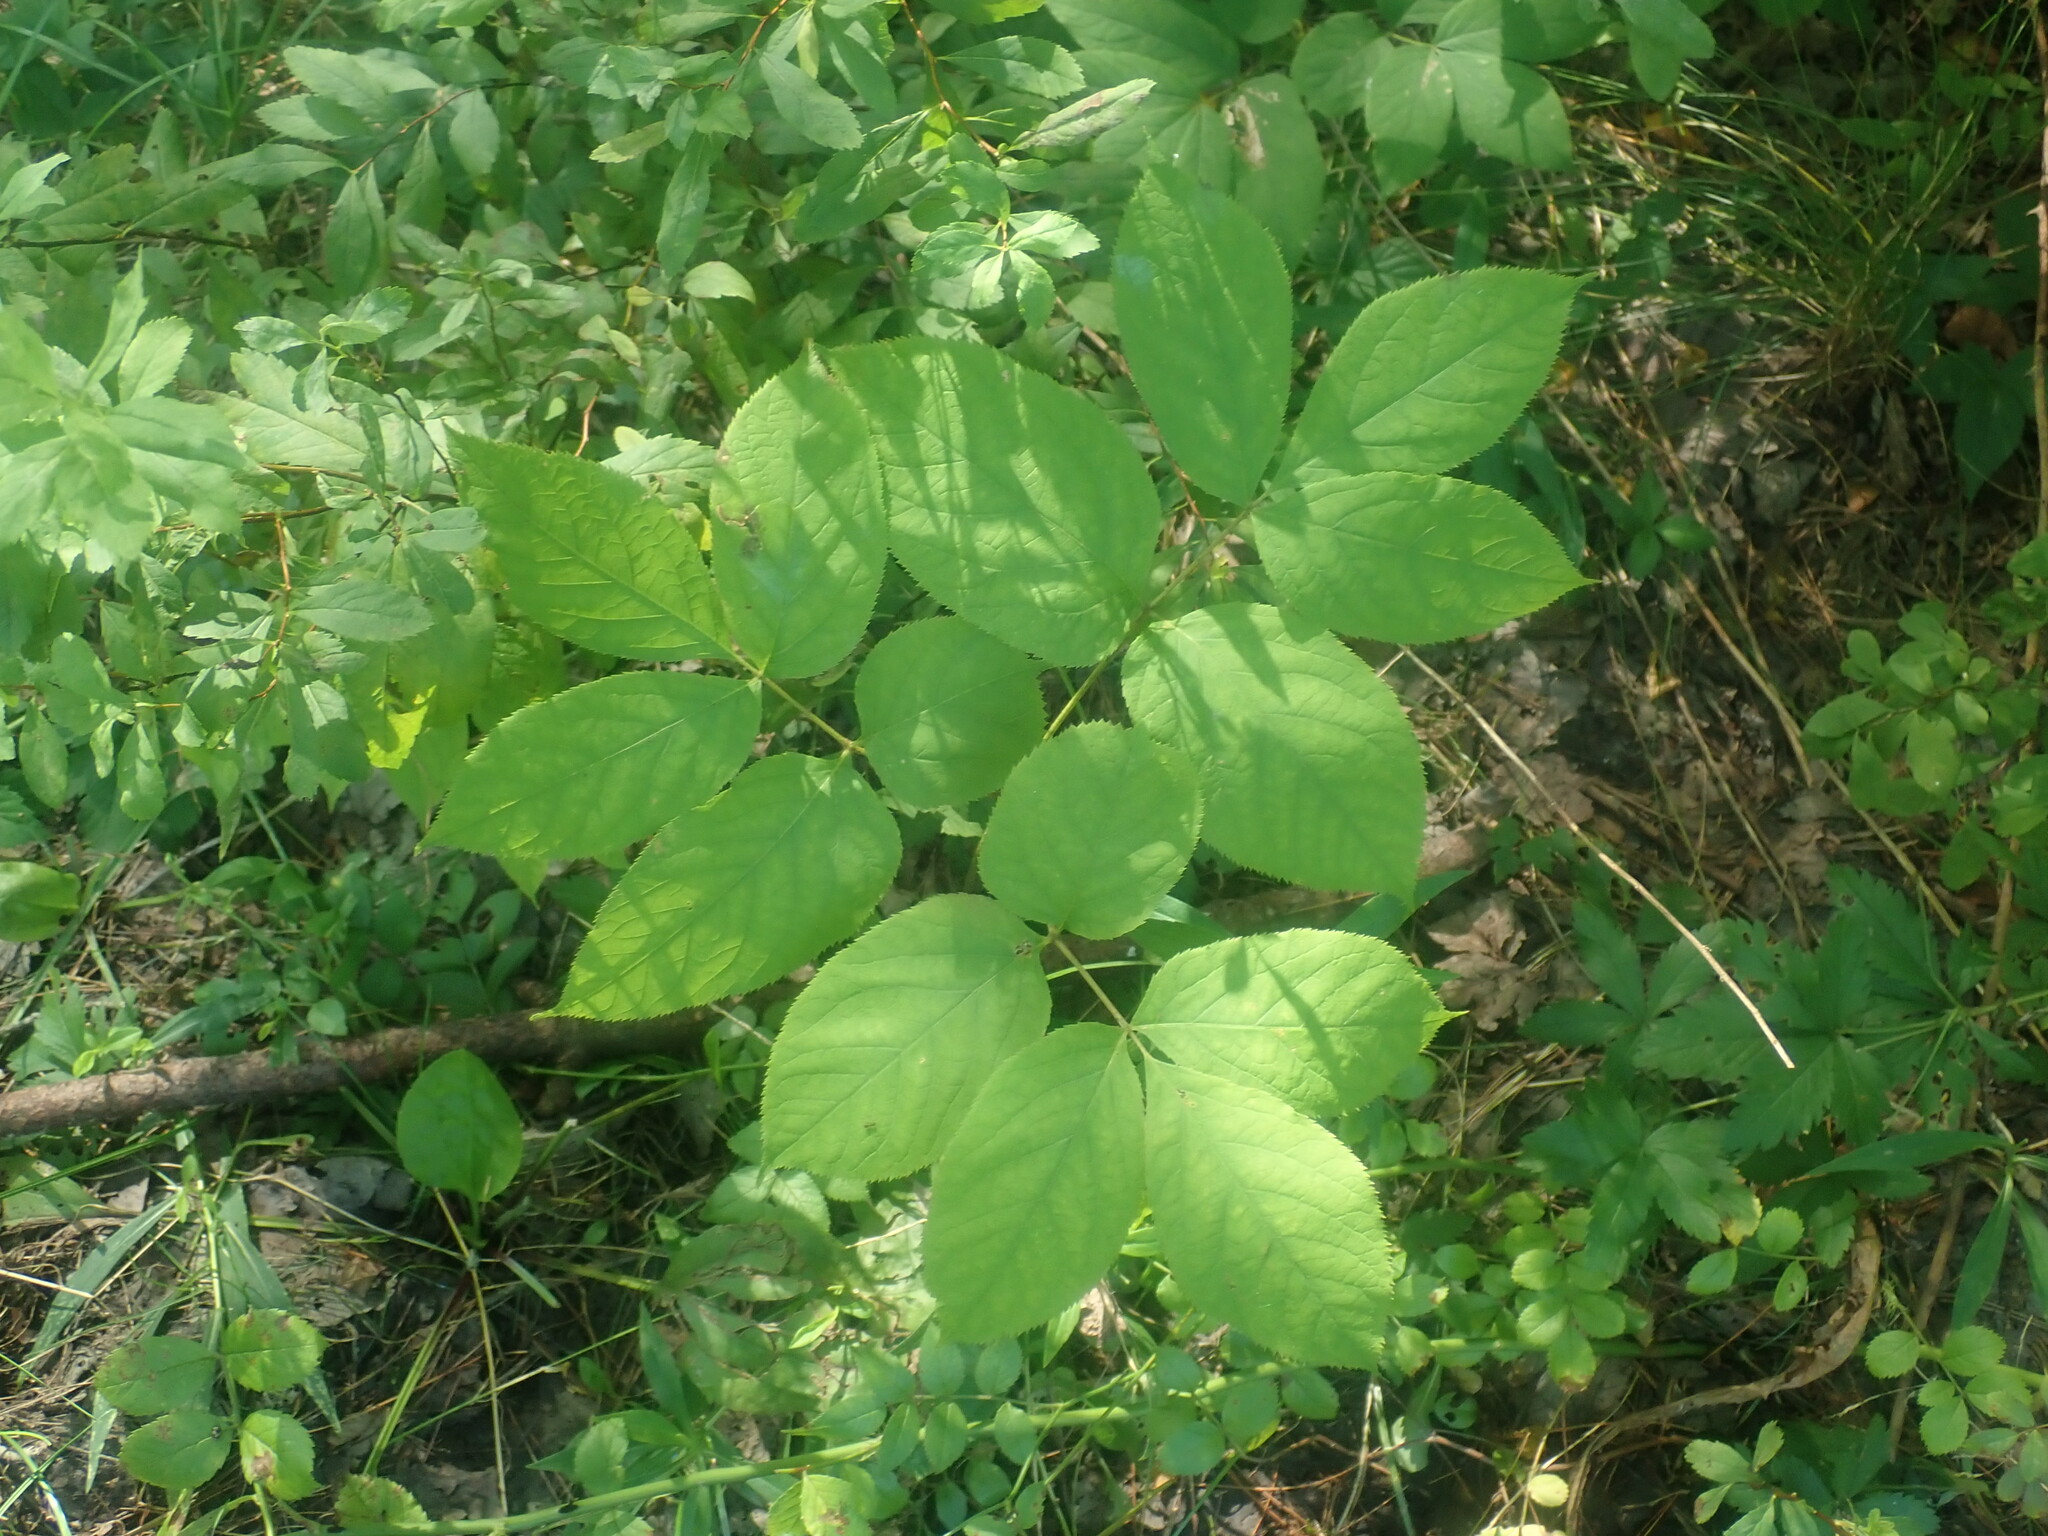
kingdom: Plantae
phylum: Tracheophyta
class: Magnoliopsida
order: Apiales
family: Araliaceae
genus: Aralia
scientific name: Aralia nudicaulis
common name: Wild sarsaparilla
